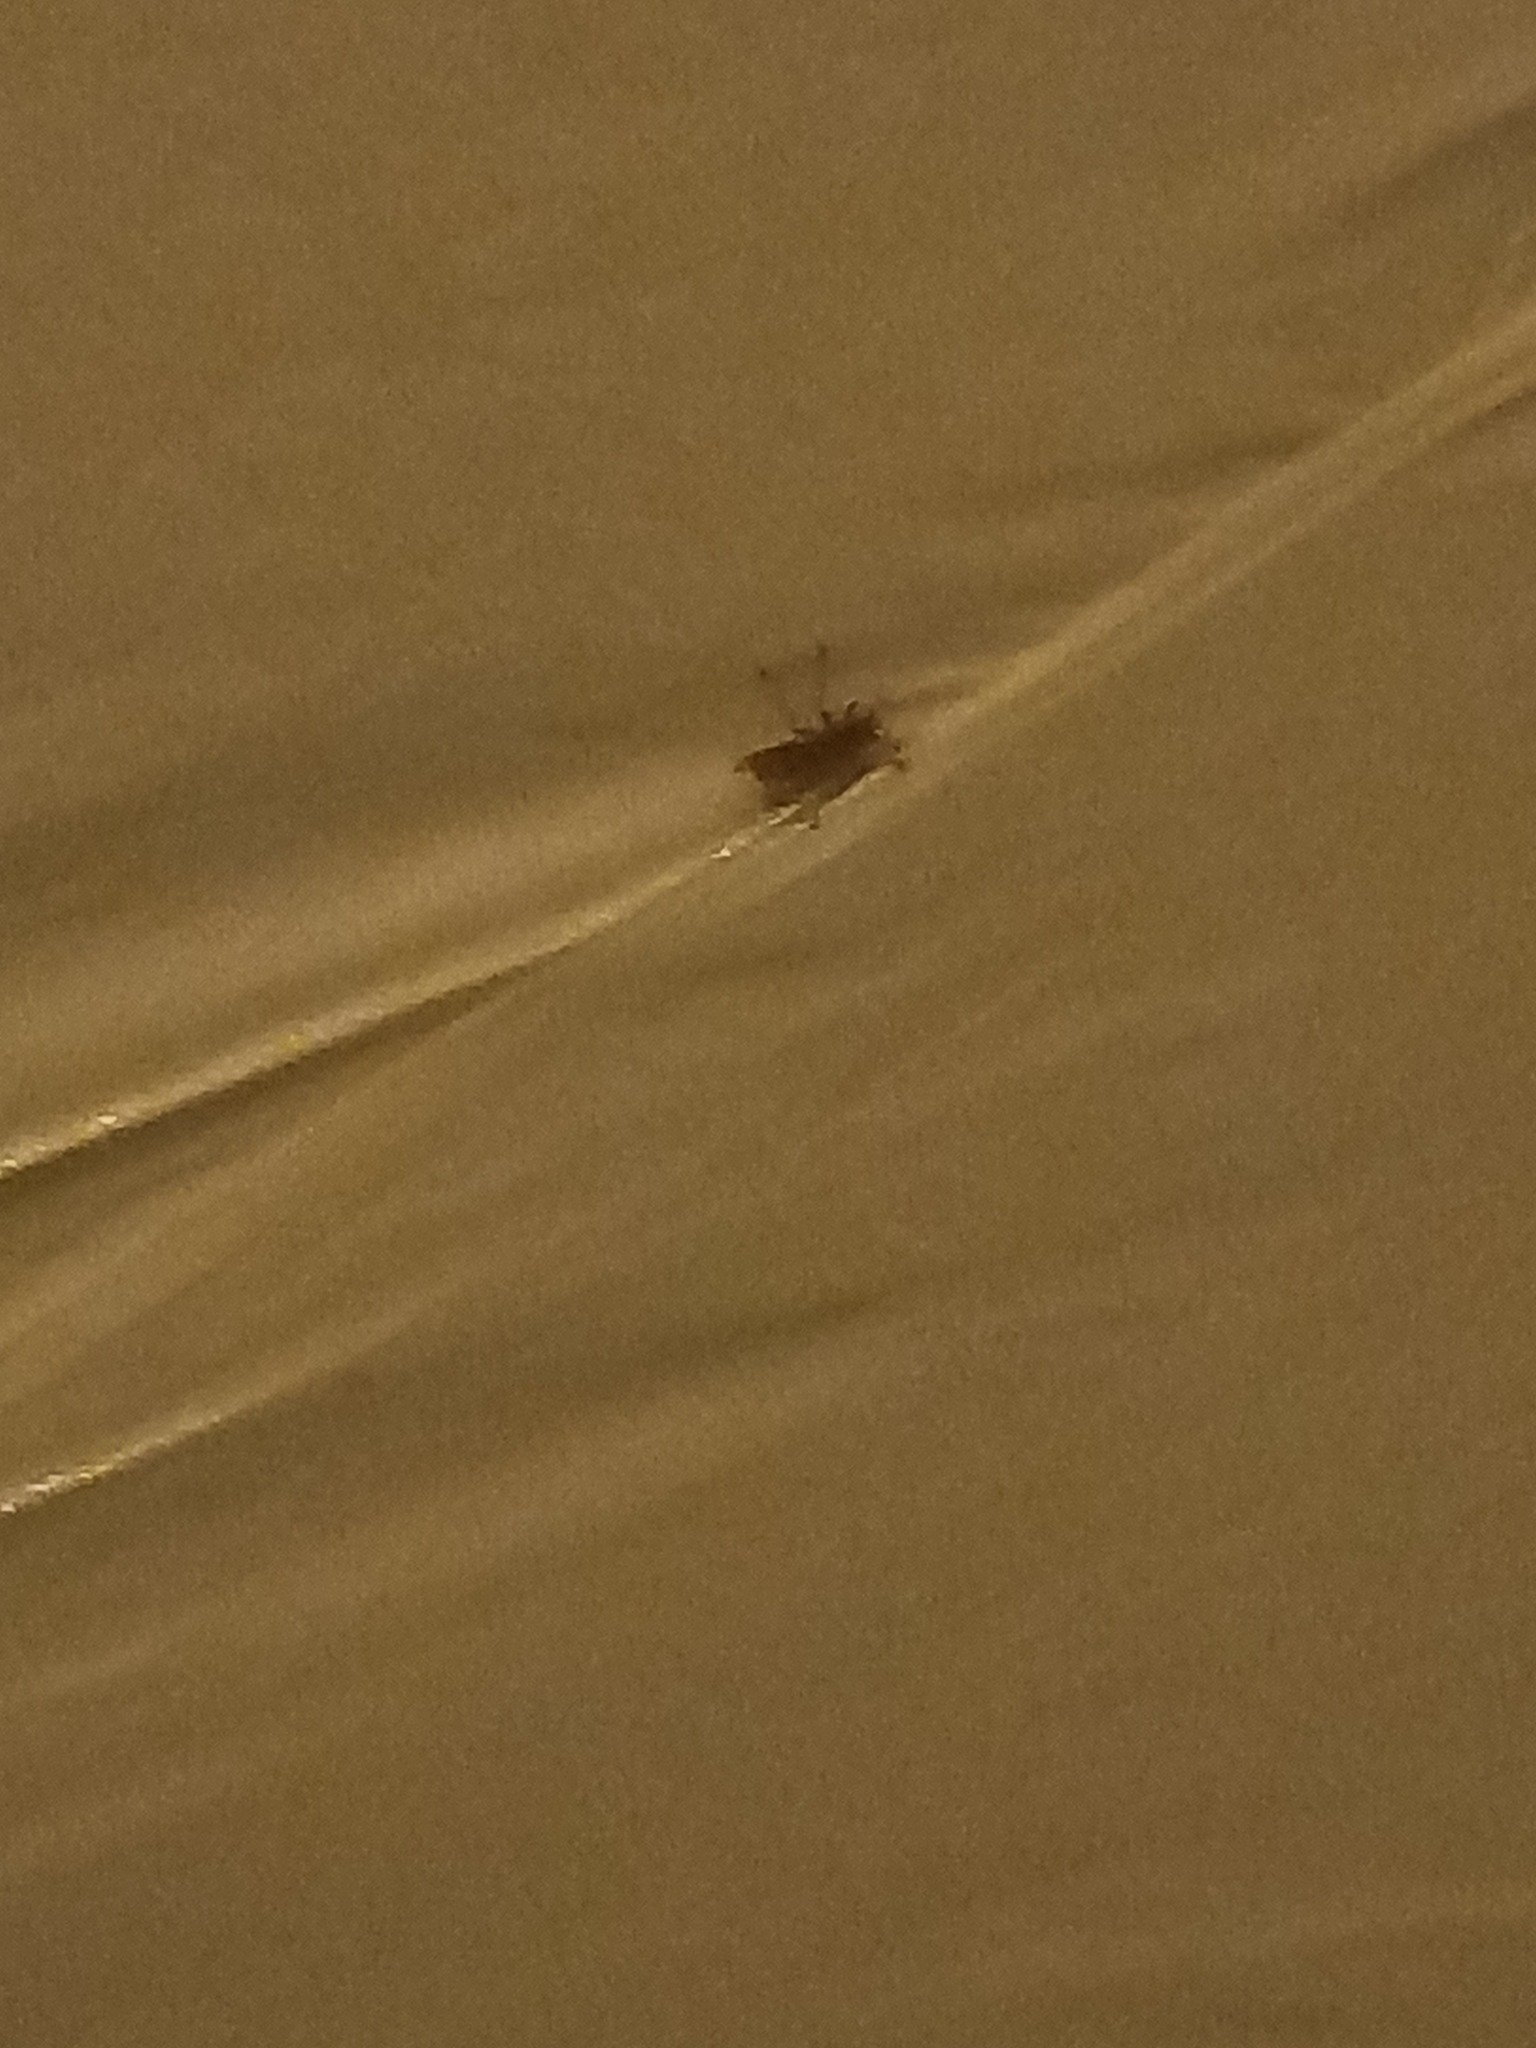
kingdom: Animalia
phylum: Arthropoda
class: Insecta
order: Hymenoptera
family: Vespidae
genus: Vespa
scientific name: Vespa crabro
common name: Hornet
